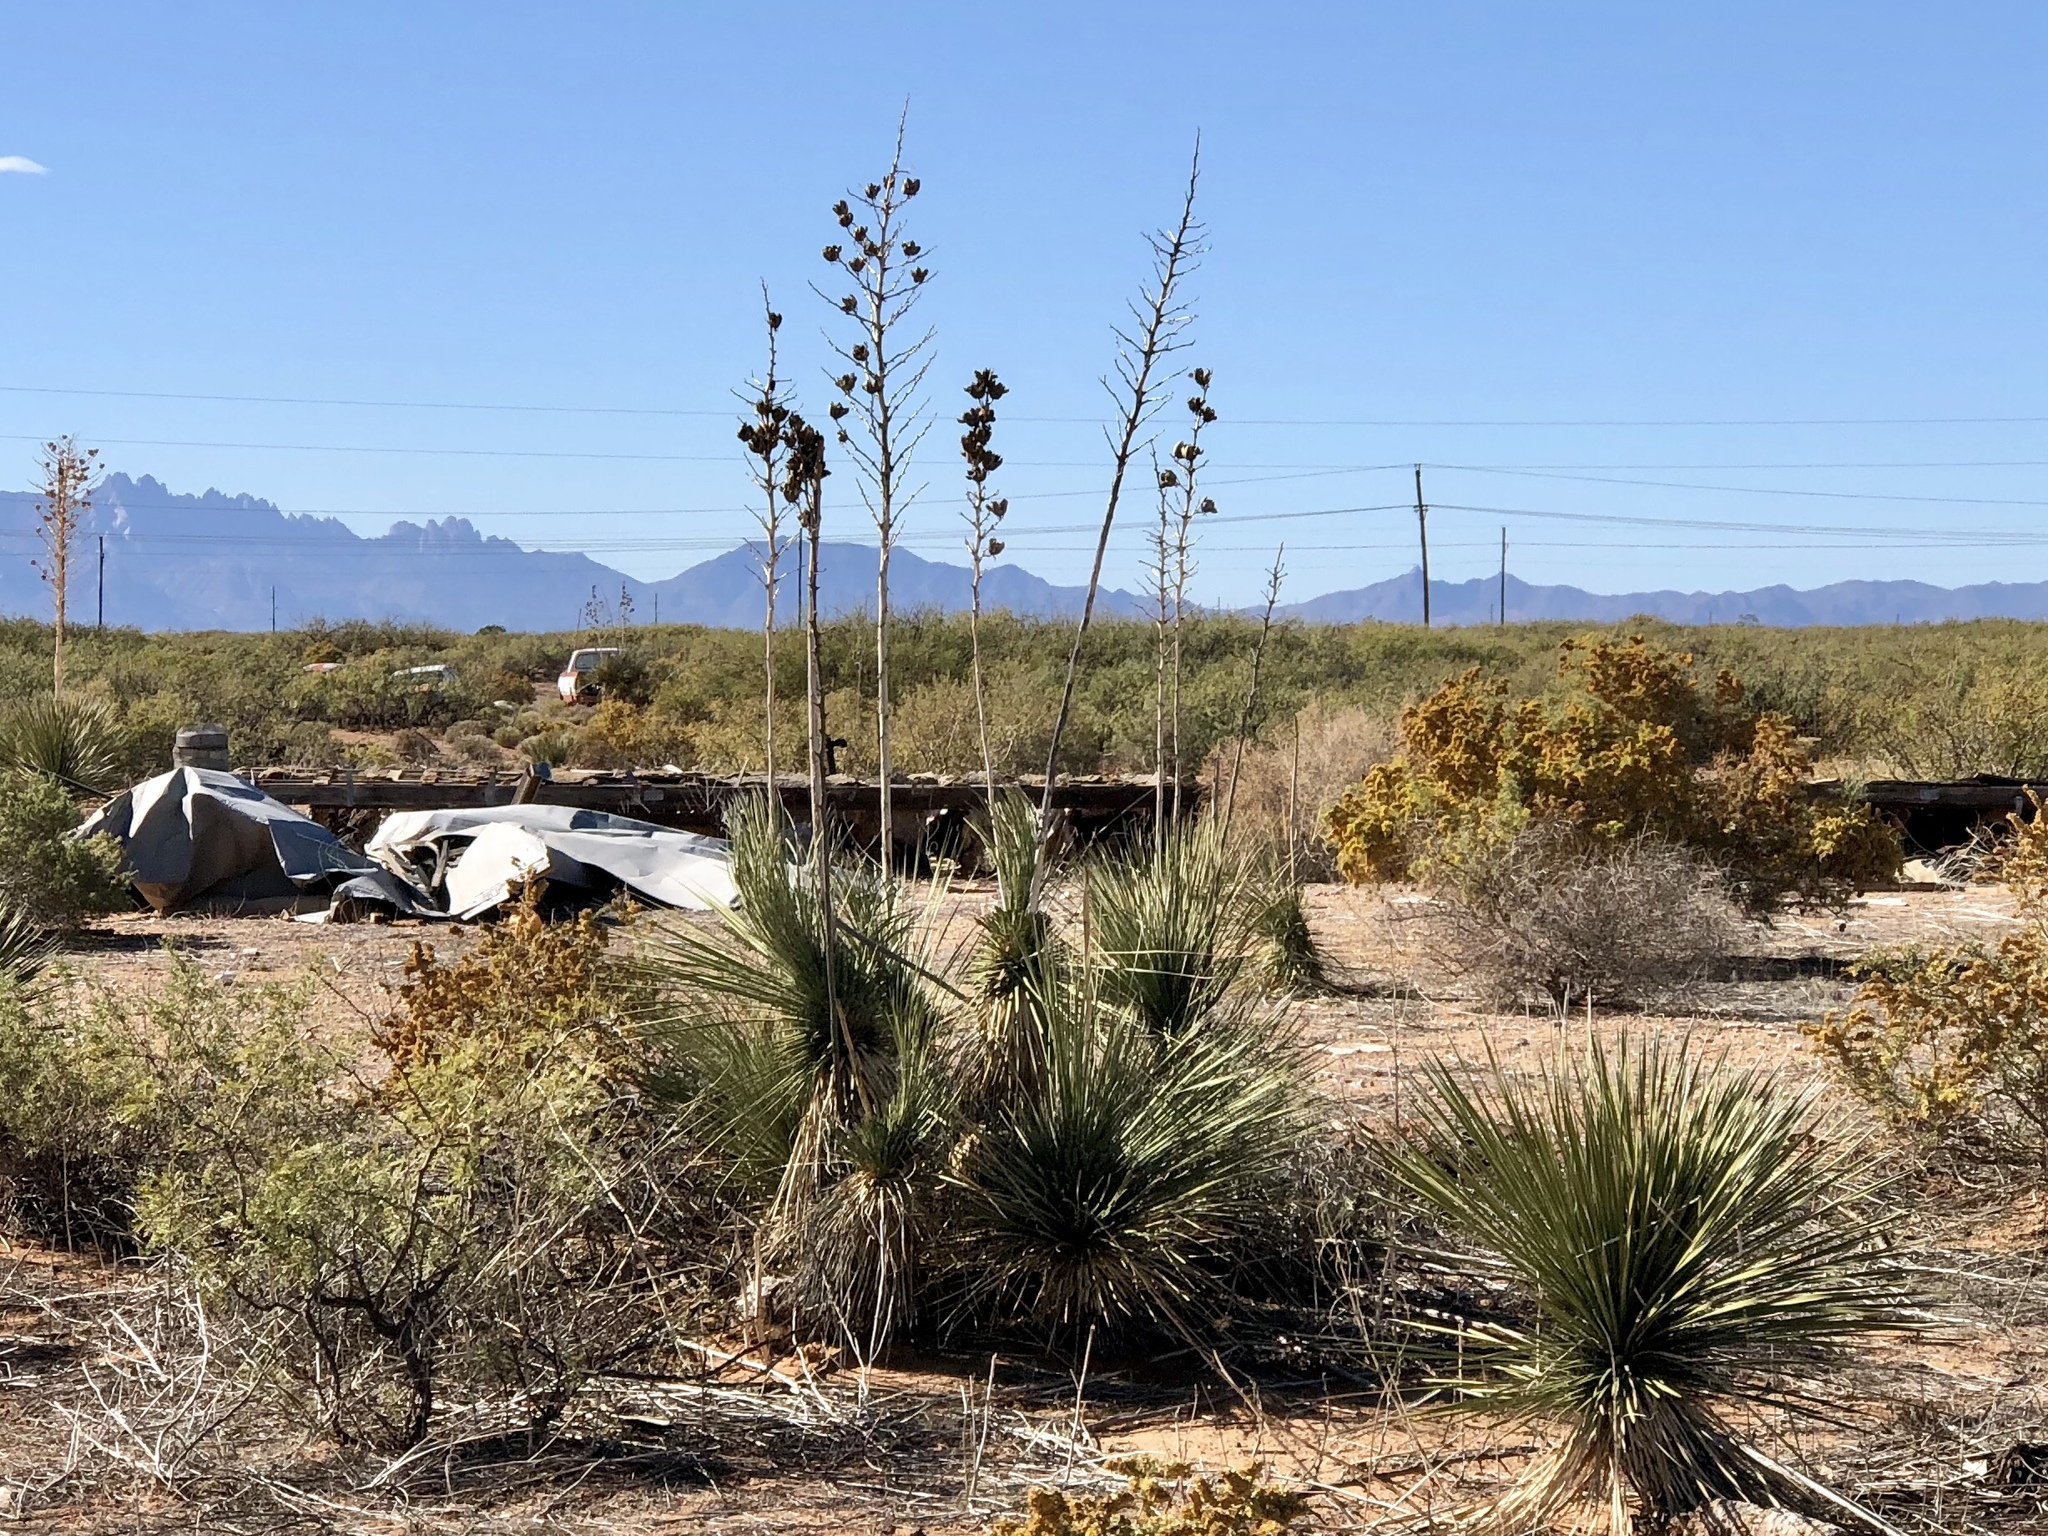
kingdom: Plantae
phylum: Tracheophyta
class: Liliopsida
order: Asparagales
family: Asparagaceae
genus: Yucca
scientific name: Yucca elata
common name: Palmella
